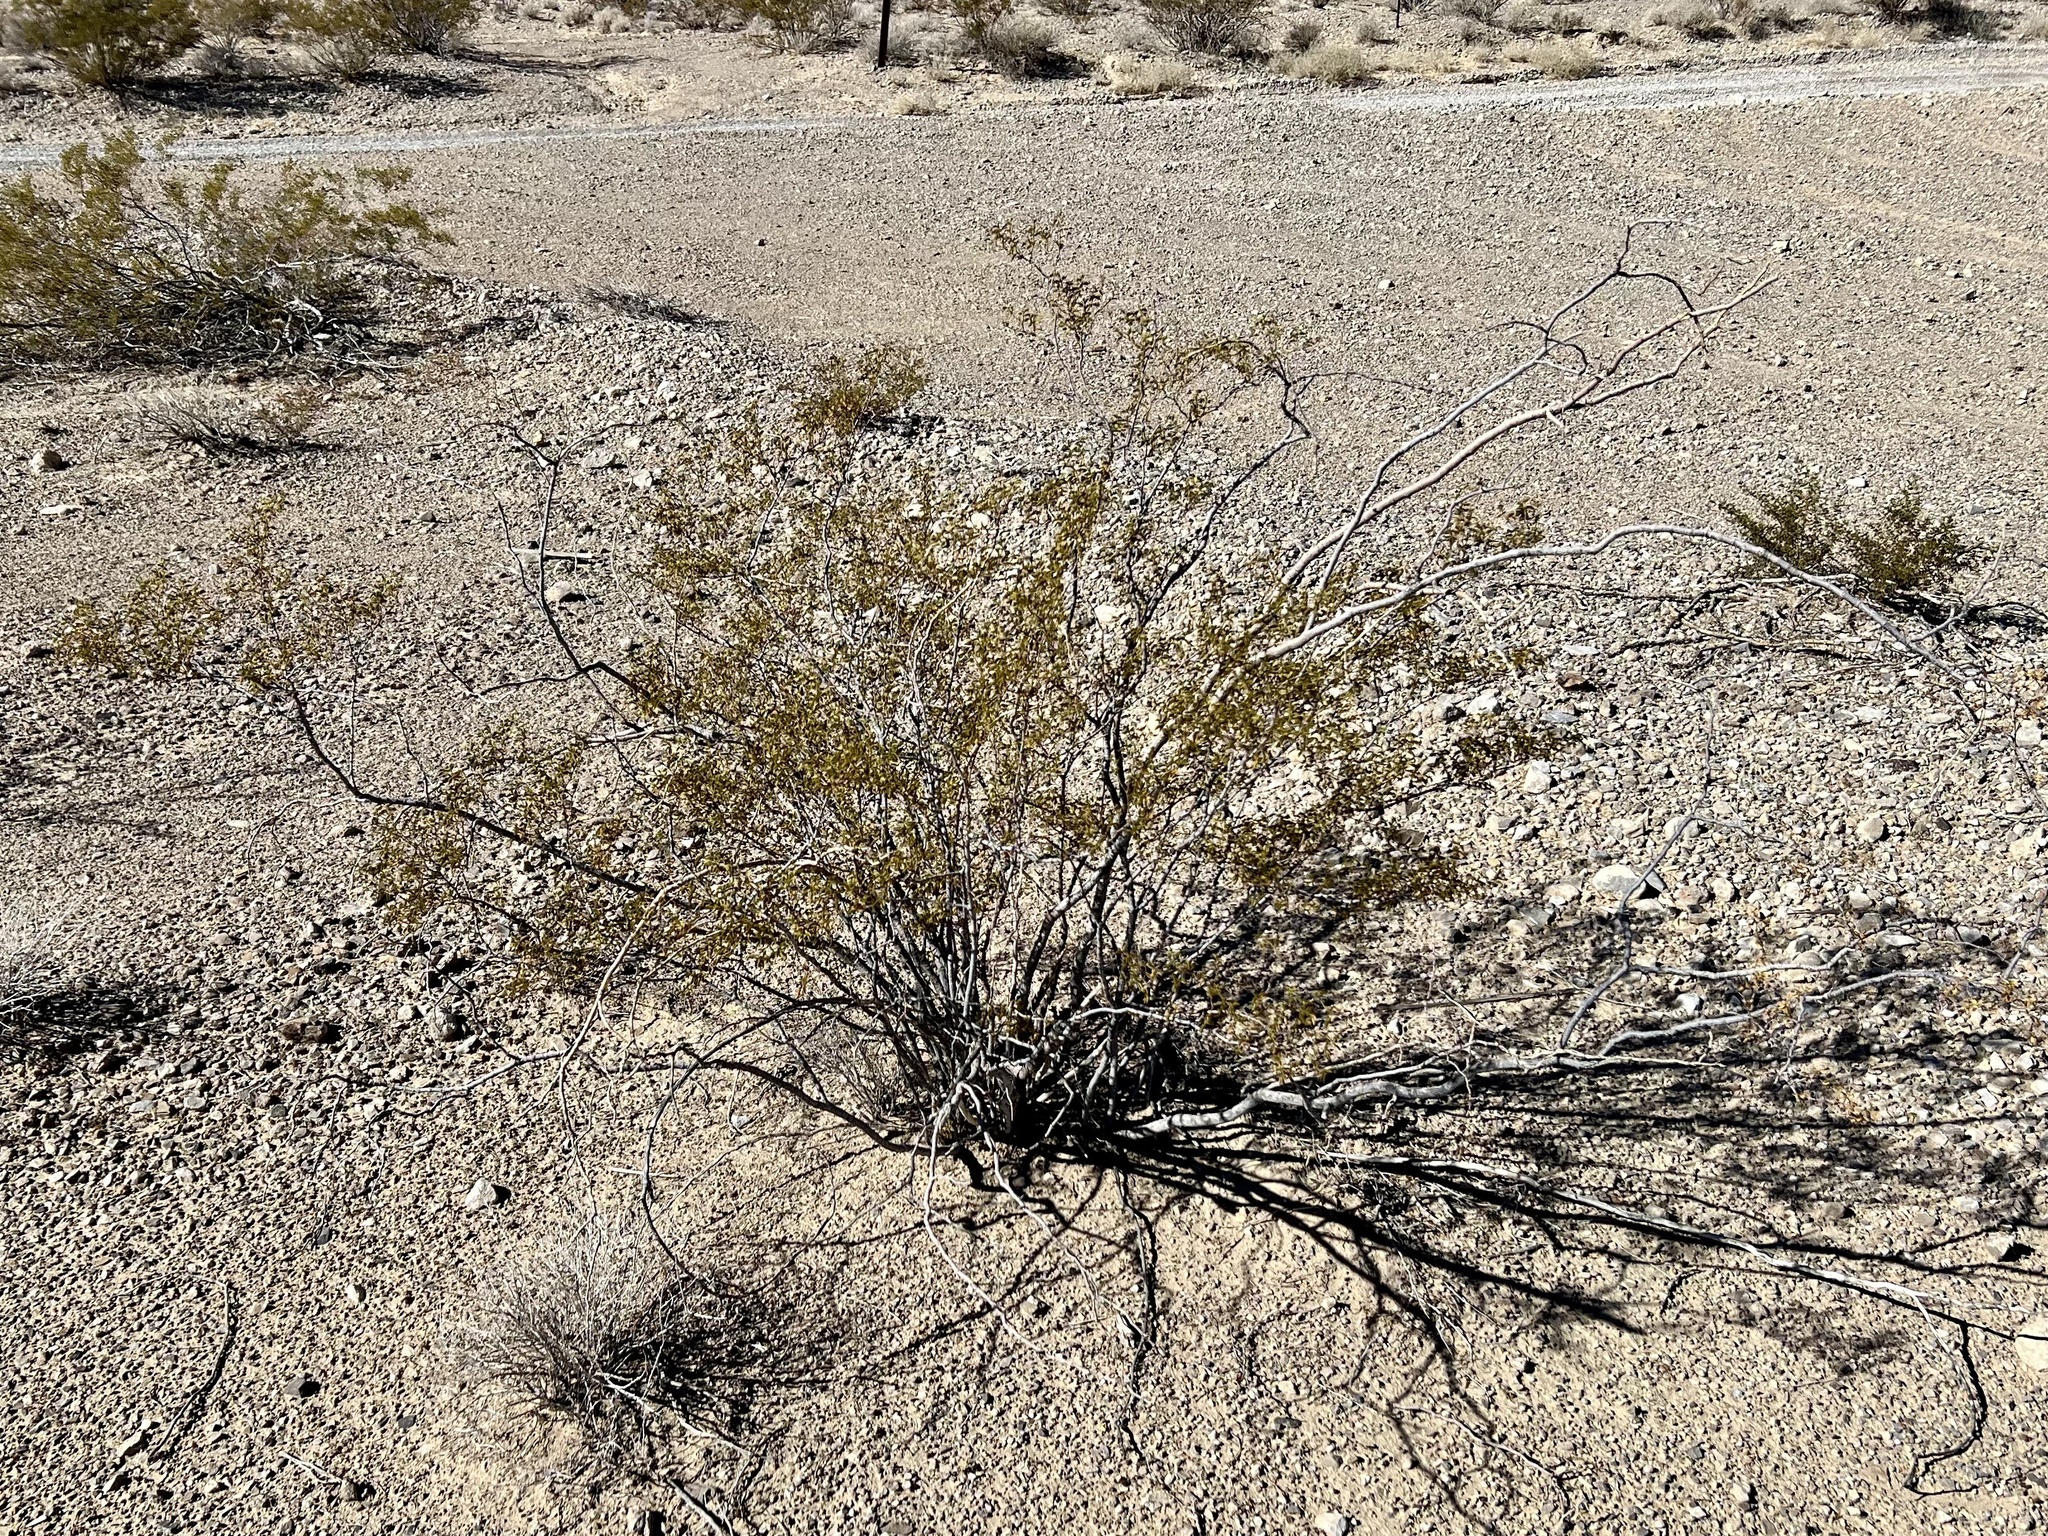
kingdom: Plantae
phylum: Tracheophyta
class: Magnoliopsida
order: Zygophyllales
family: Zygophyllaceae
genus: Larrea
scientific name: Larrea tridentata
